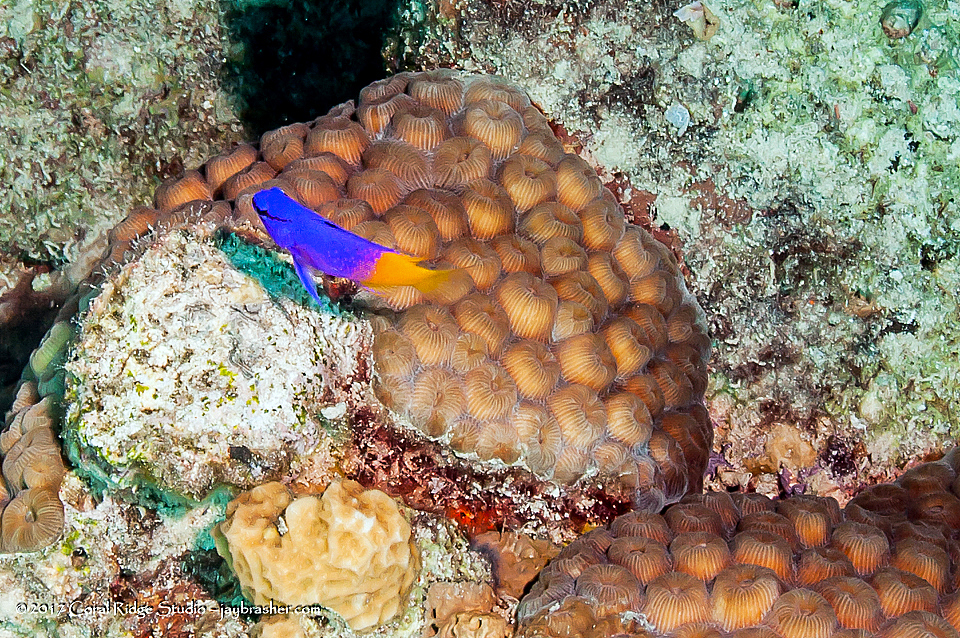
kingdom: Animalia
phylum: Chordata
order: Perciformes
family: Grammatidae
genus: Gramma
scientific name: Gramma loreto
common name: Fairy basslet
